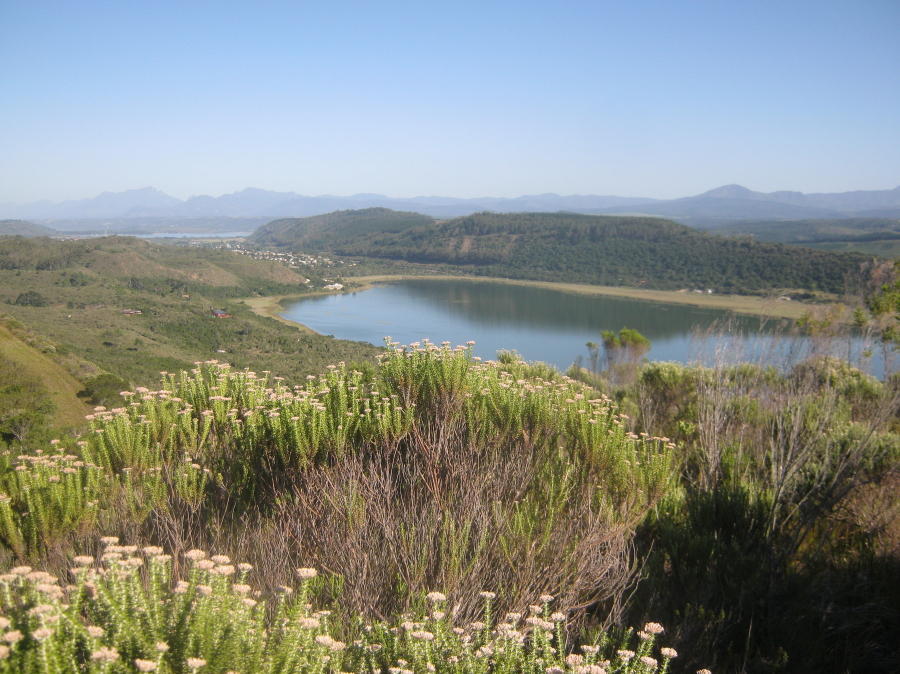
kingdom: Plantae
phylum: Tracheophyta
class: Magnoliopsida
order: Asterales
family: Asteraceae
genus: Metalasia
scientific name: Metalasia muricata
